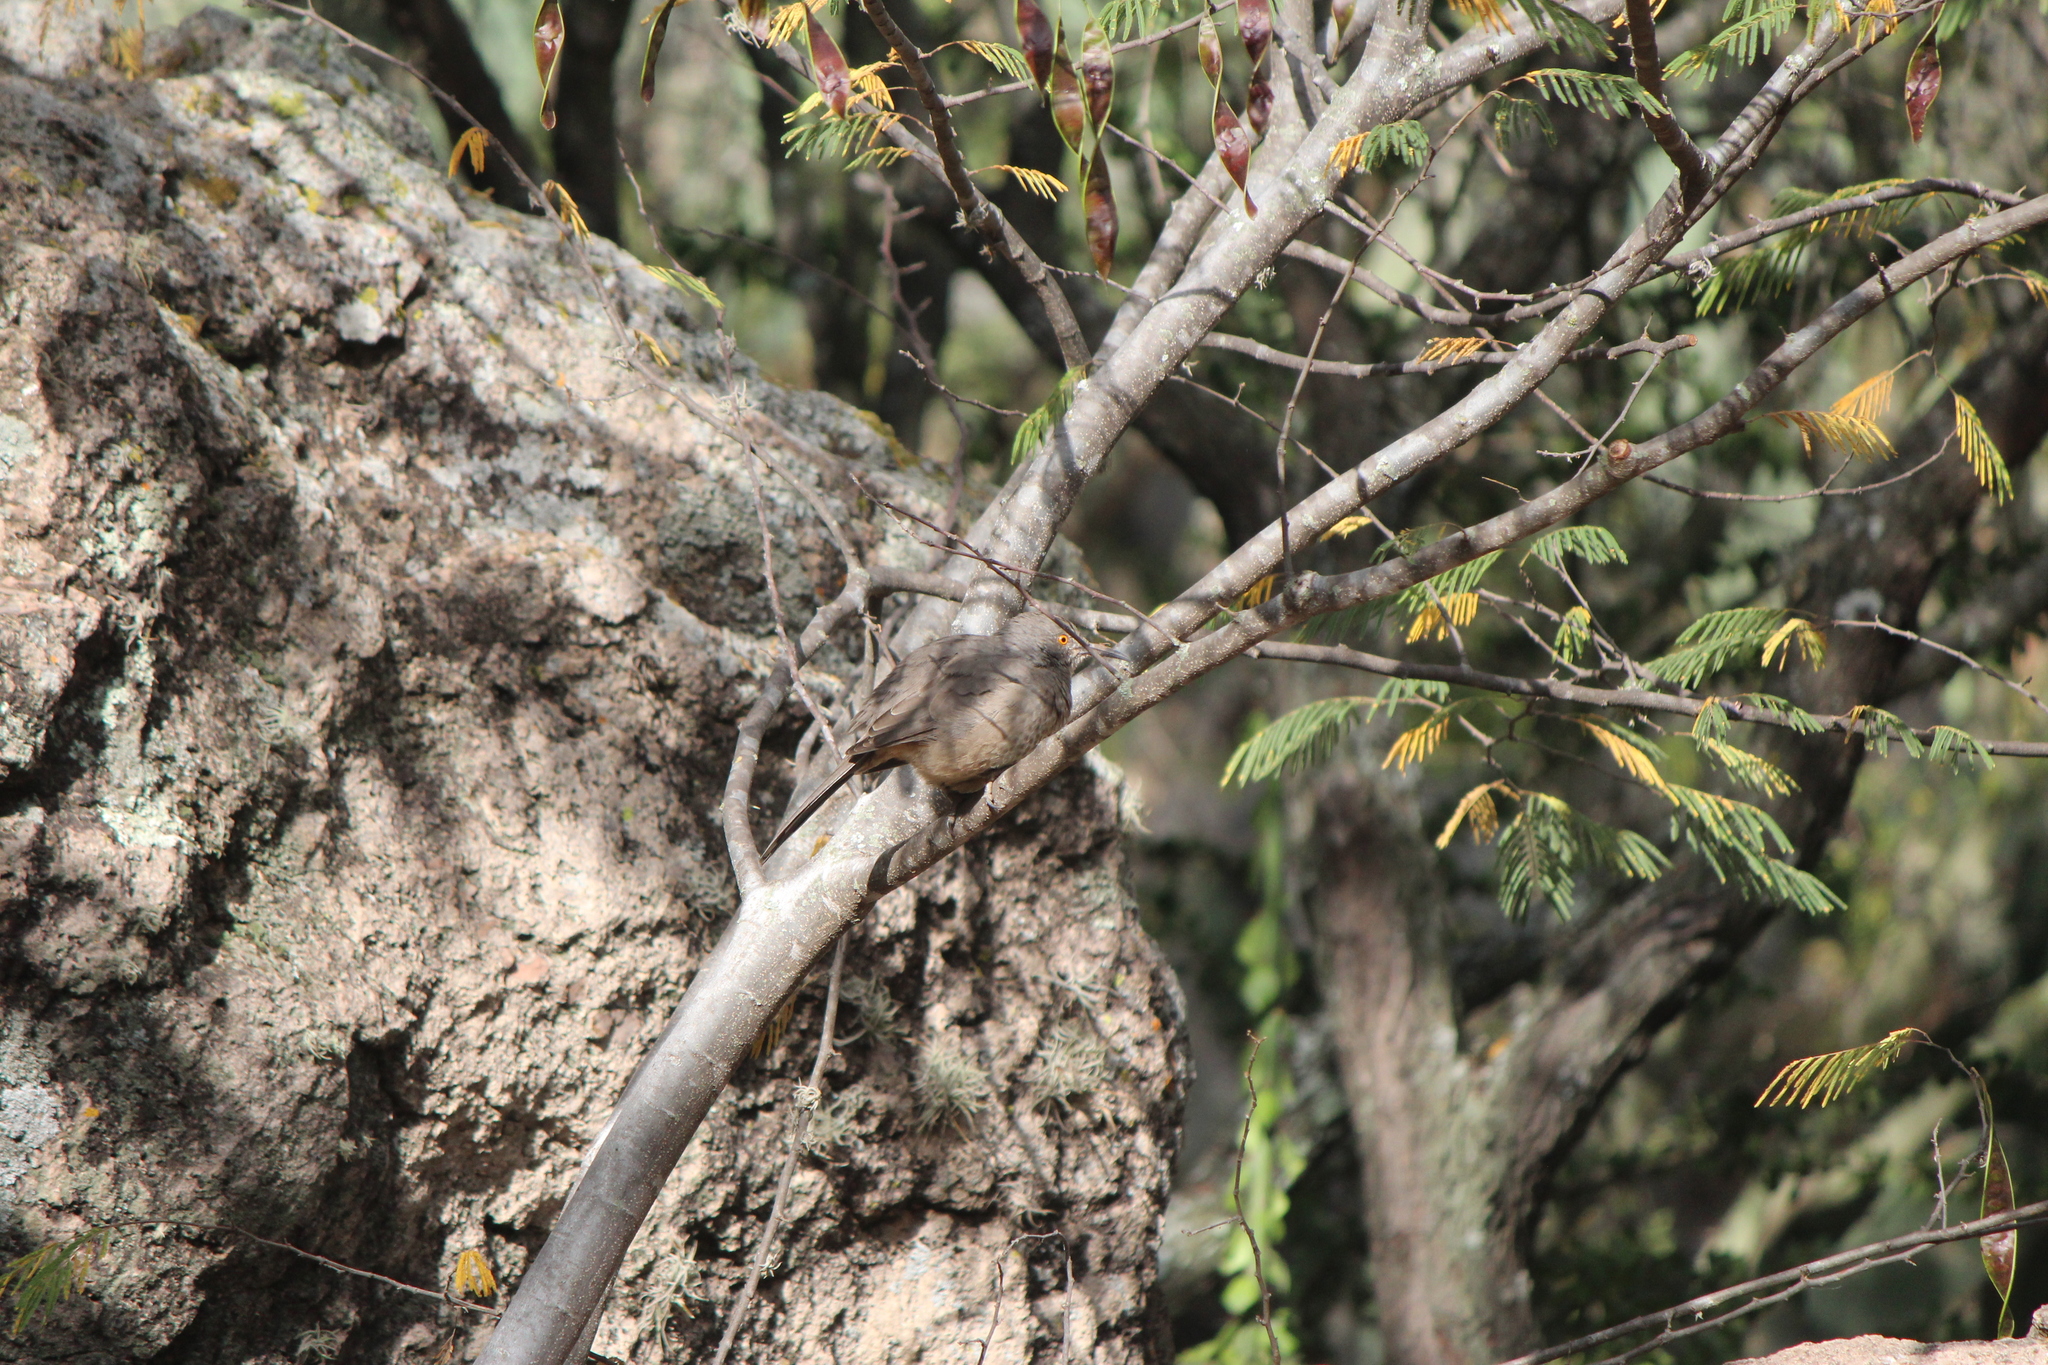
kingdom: Animalia
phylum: Chordata
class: Aves
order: Passeriformes
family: Mimidae
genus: Toxostoma
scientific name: Toxostoma curvirostre
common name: Curve-billed thrasher
